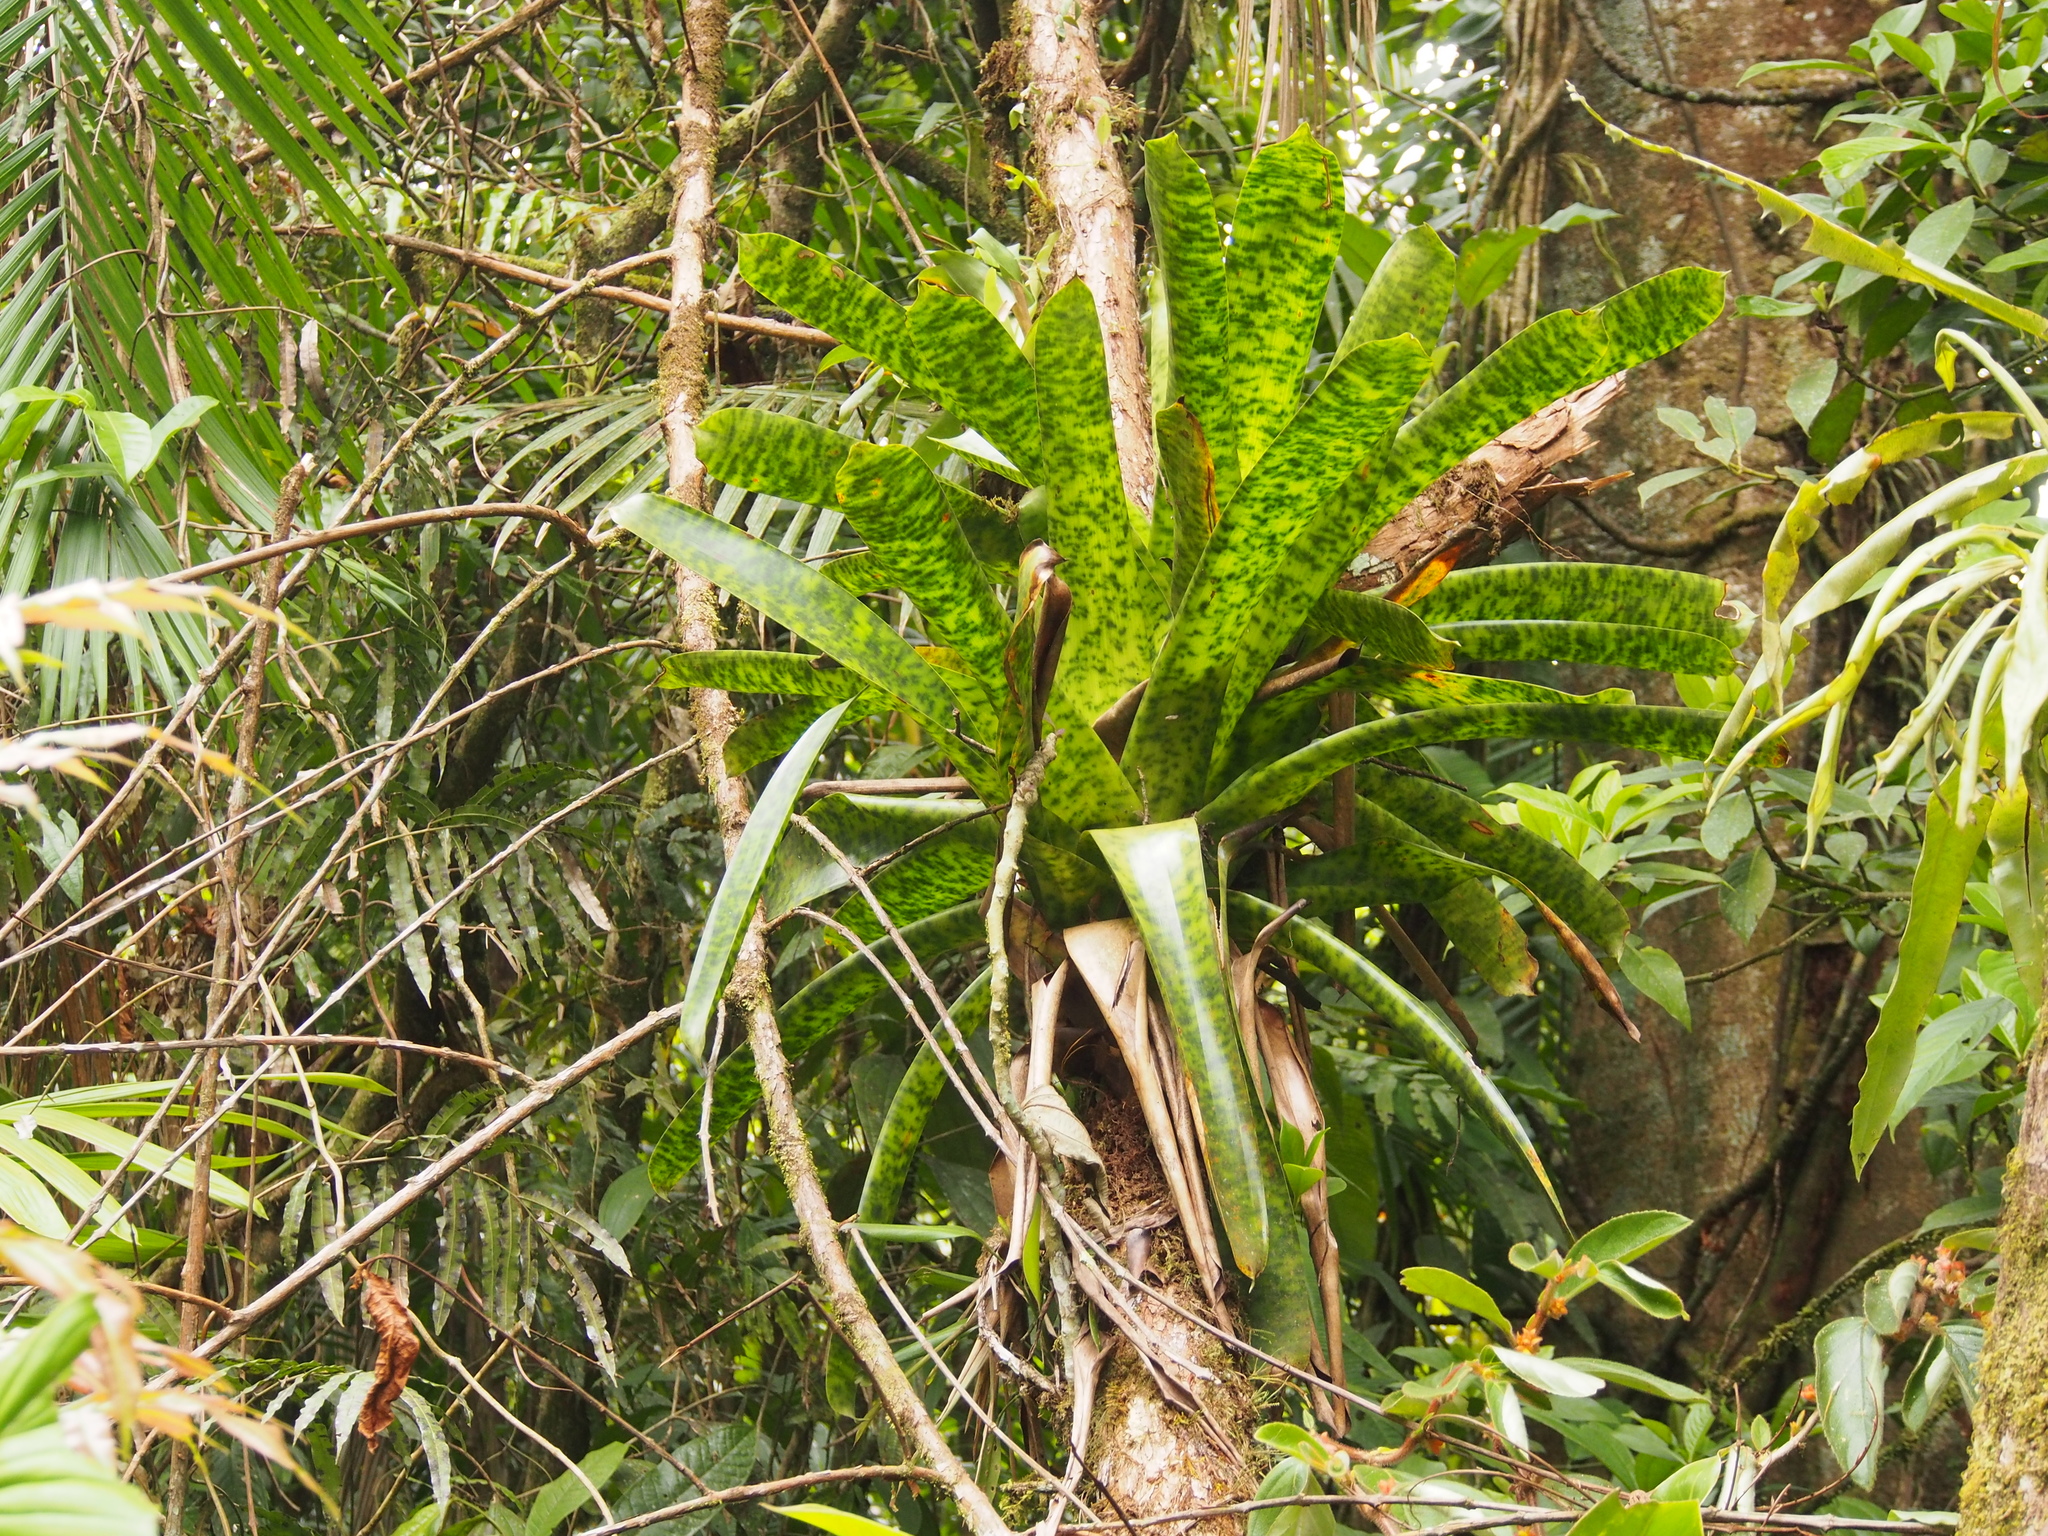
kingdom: Plantae
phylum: Tracheophyta
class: Liliopsida
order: Poales
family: Bromeliaceae
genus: Werauhia
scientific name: Werauhia kupperiana
